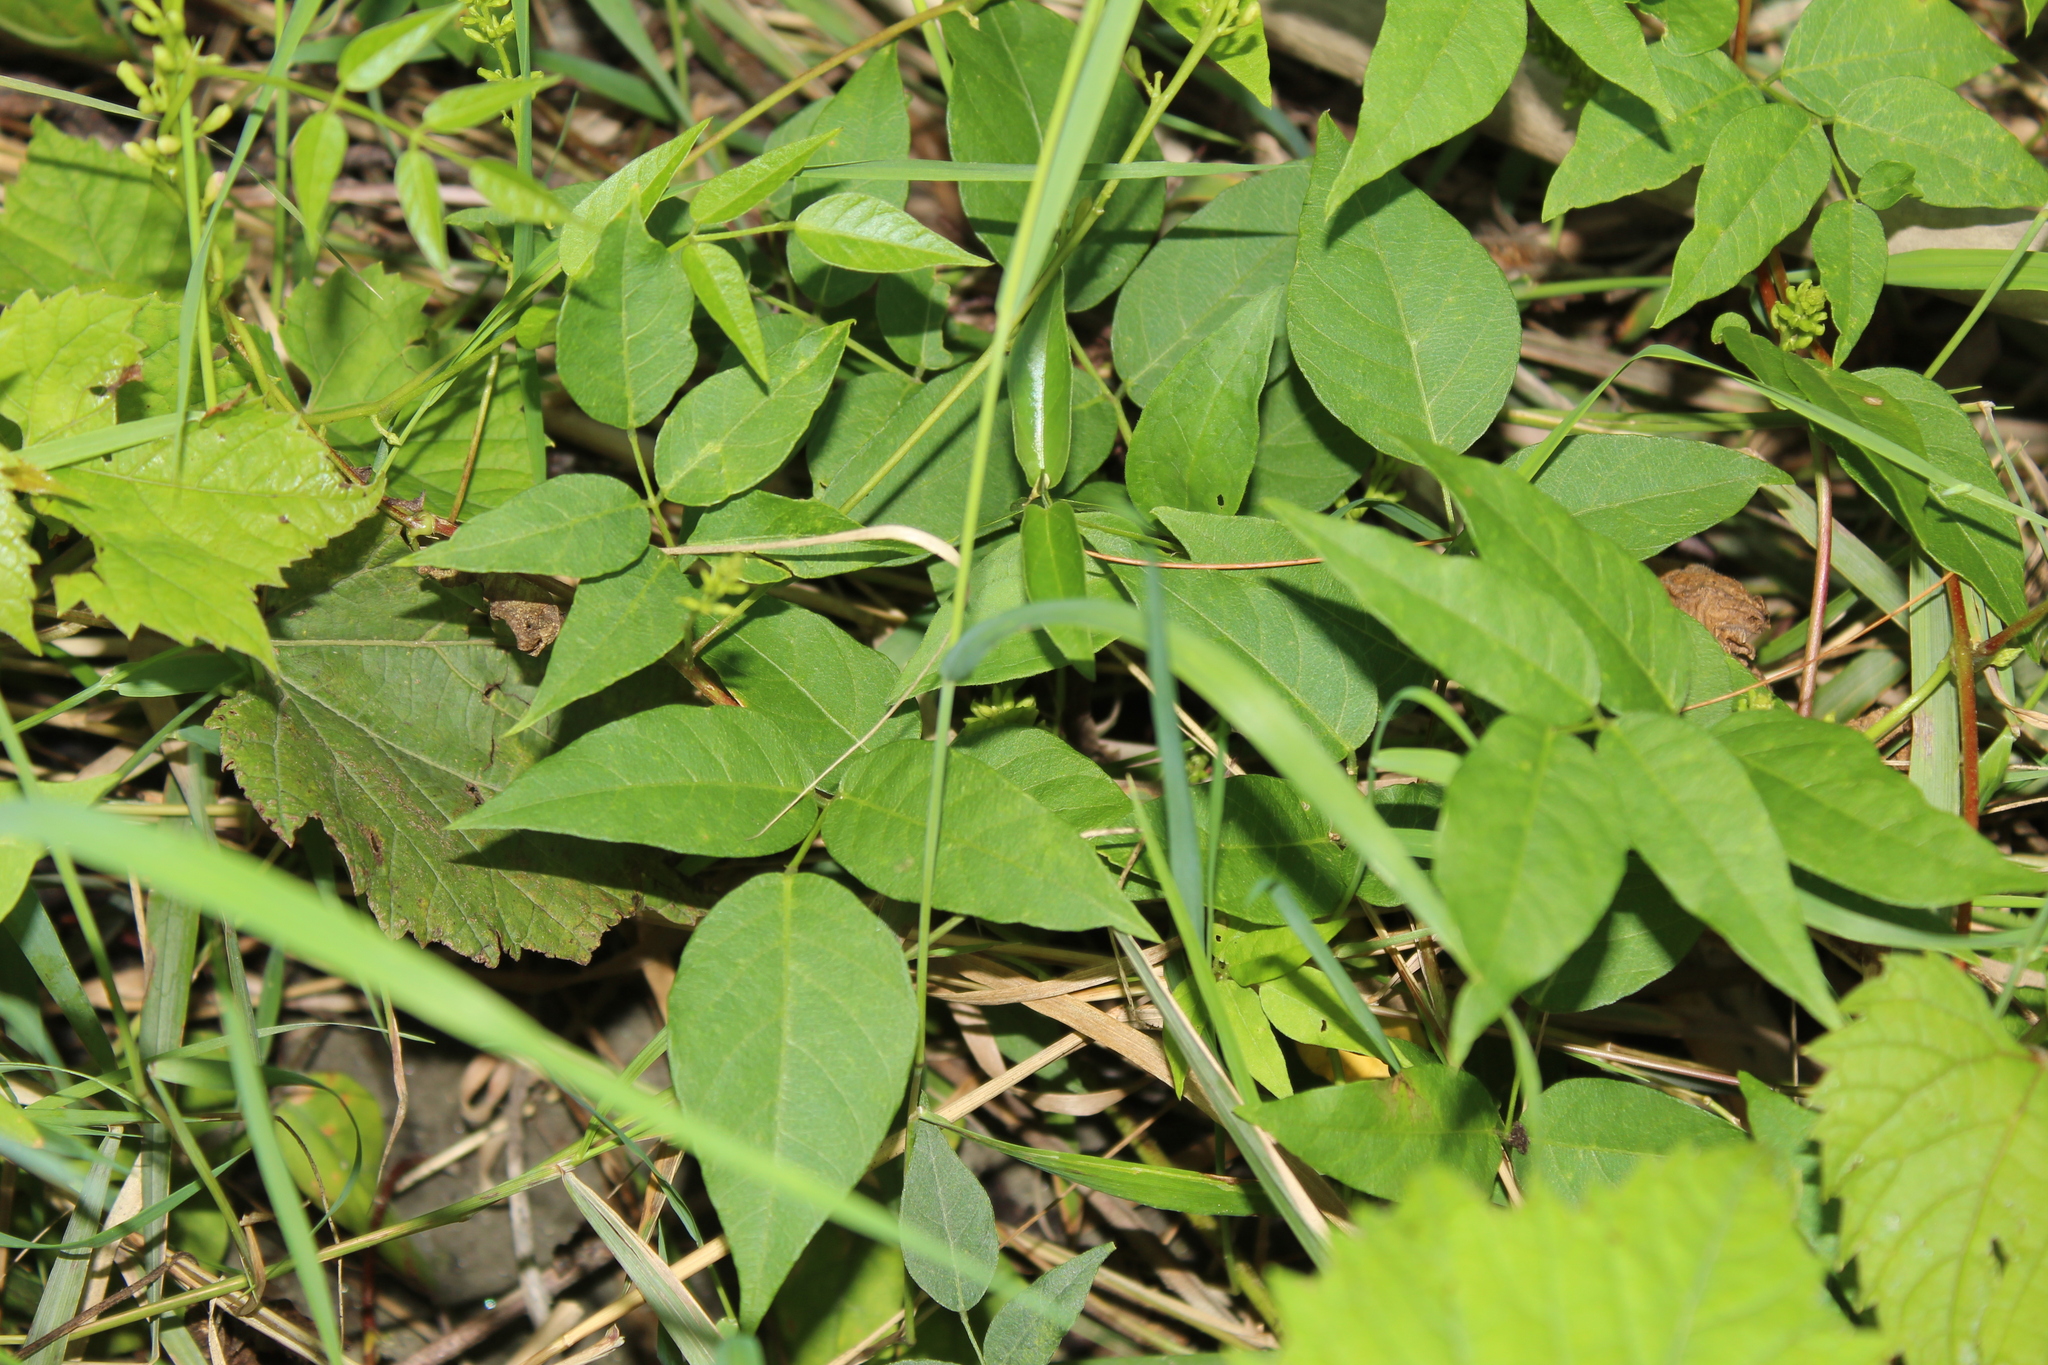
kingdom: Plantae
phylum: Tracheophyta
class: Magnoliopsida
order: Fabales
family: Fabaceae
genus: Apios
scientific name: Apios americana
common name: American potato-bean
